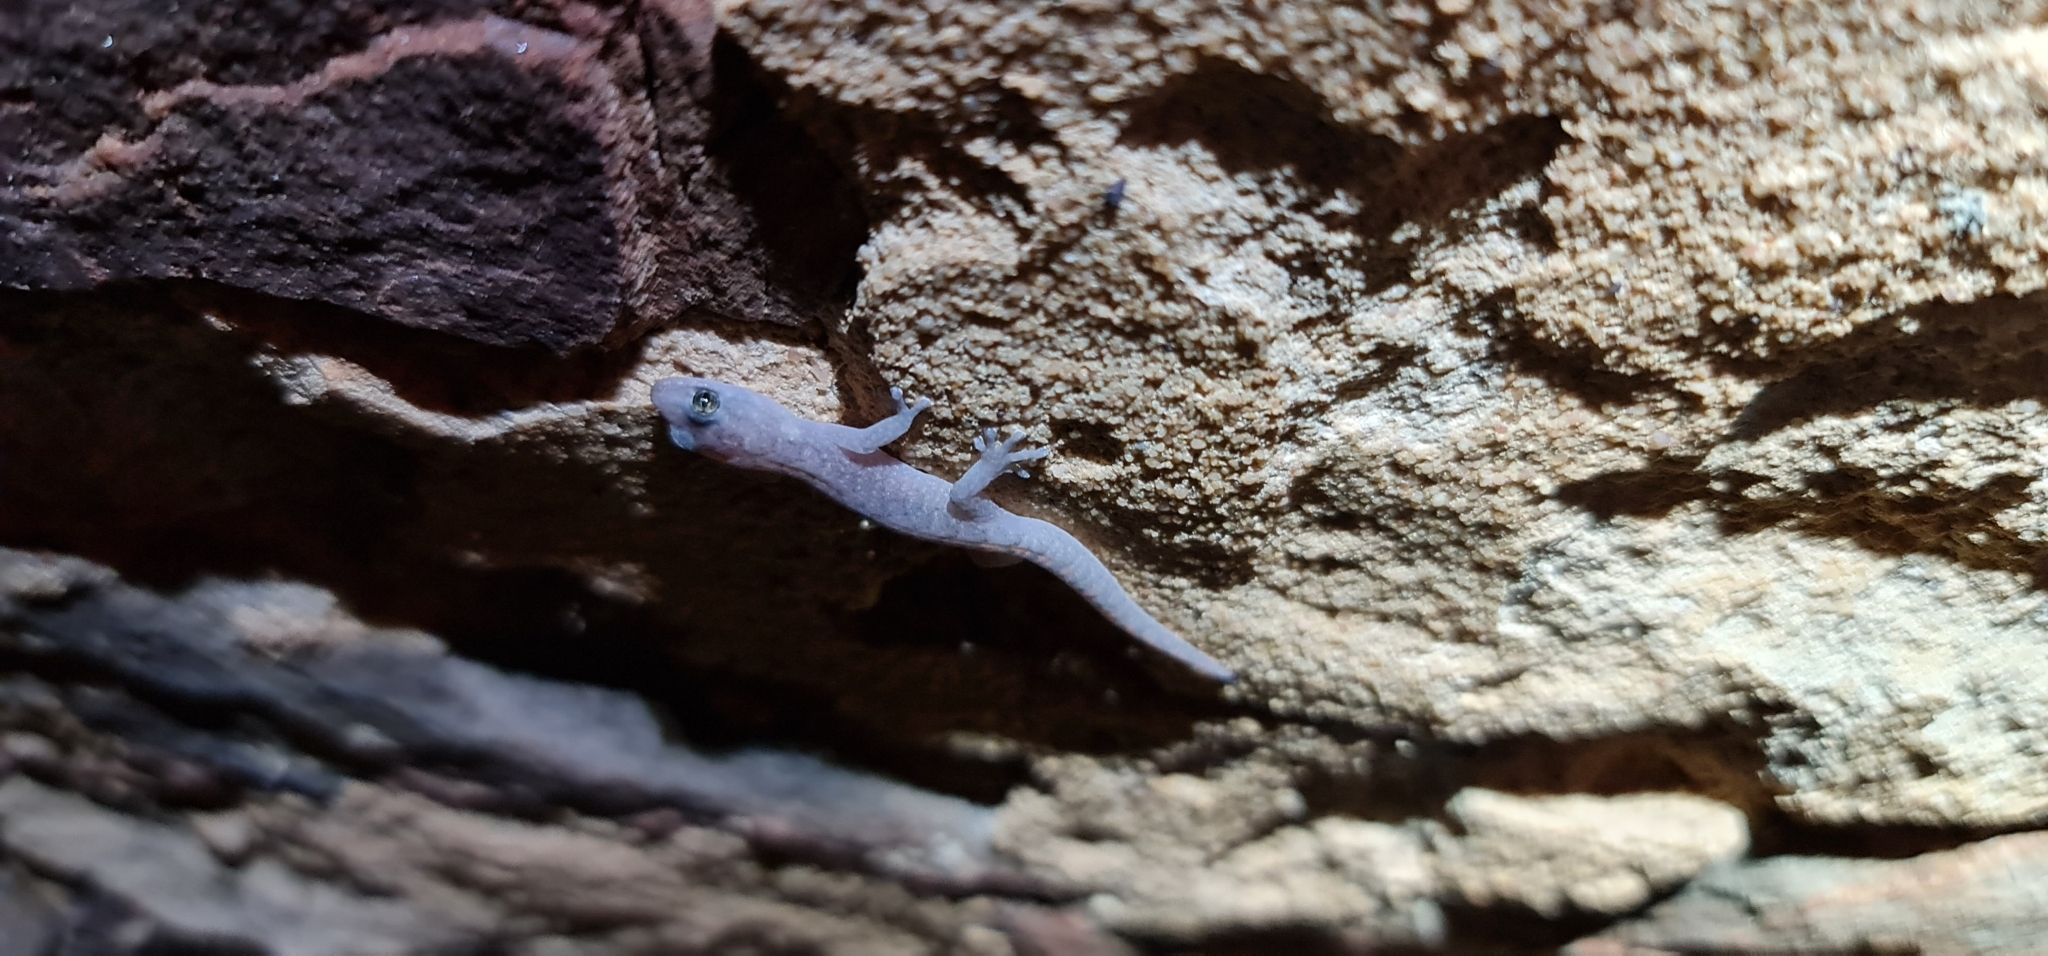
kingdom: Animalia
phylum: Chordata
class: Squamata
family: Gekkonidae
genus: Christinus
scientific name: Christinus marmoratus
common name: Marbled gecko
